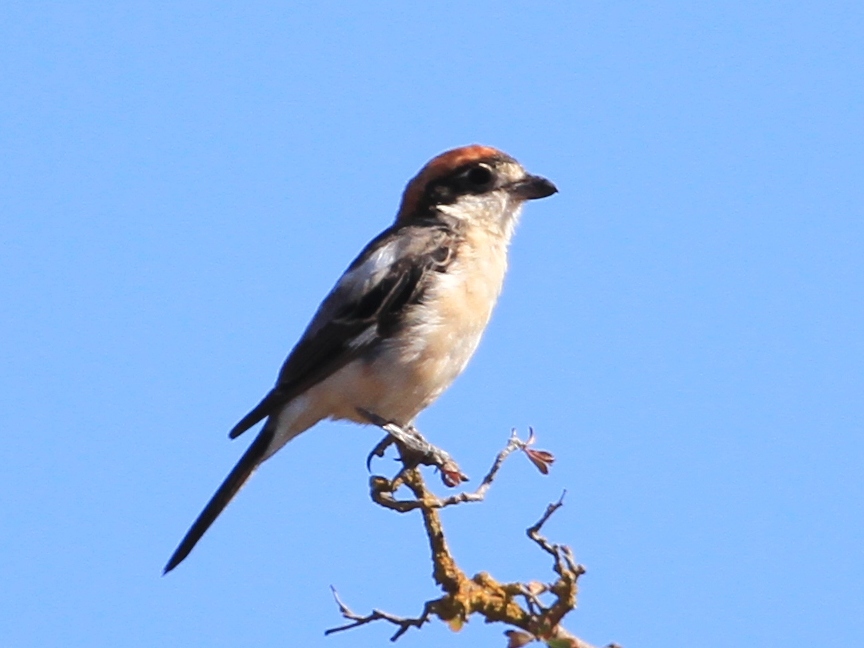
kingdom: Animalia
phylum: Chordata
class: Aves
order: Passeriformes
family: Laniidae
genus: Lanius
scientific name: Lanius senator
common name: Woodchat shrike
